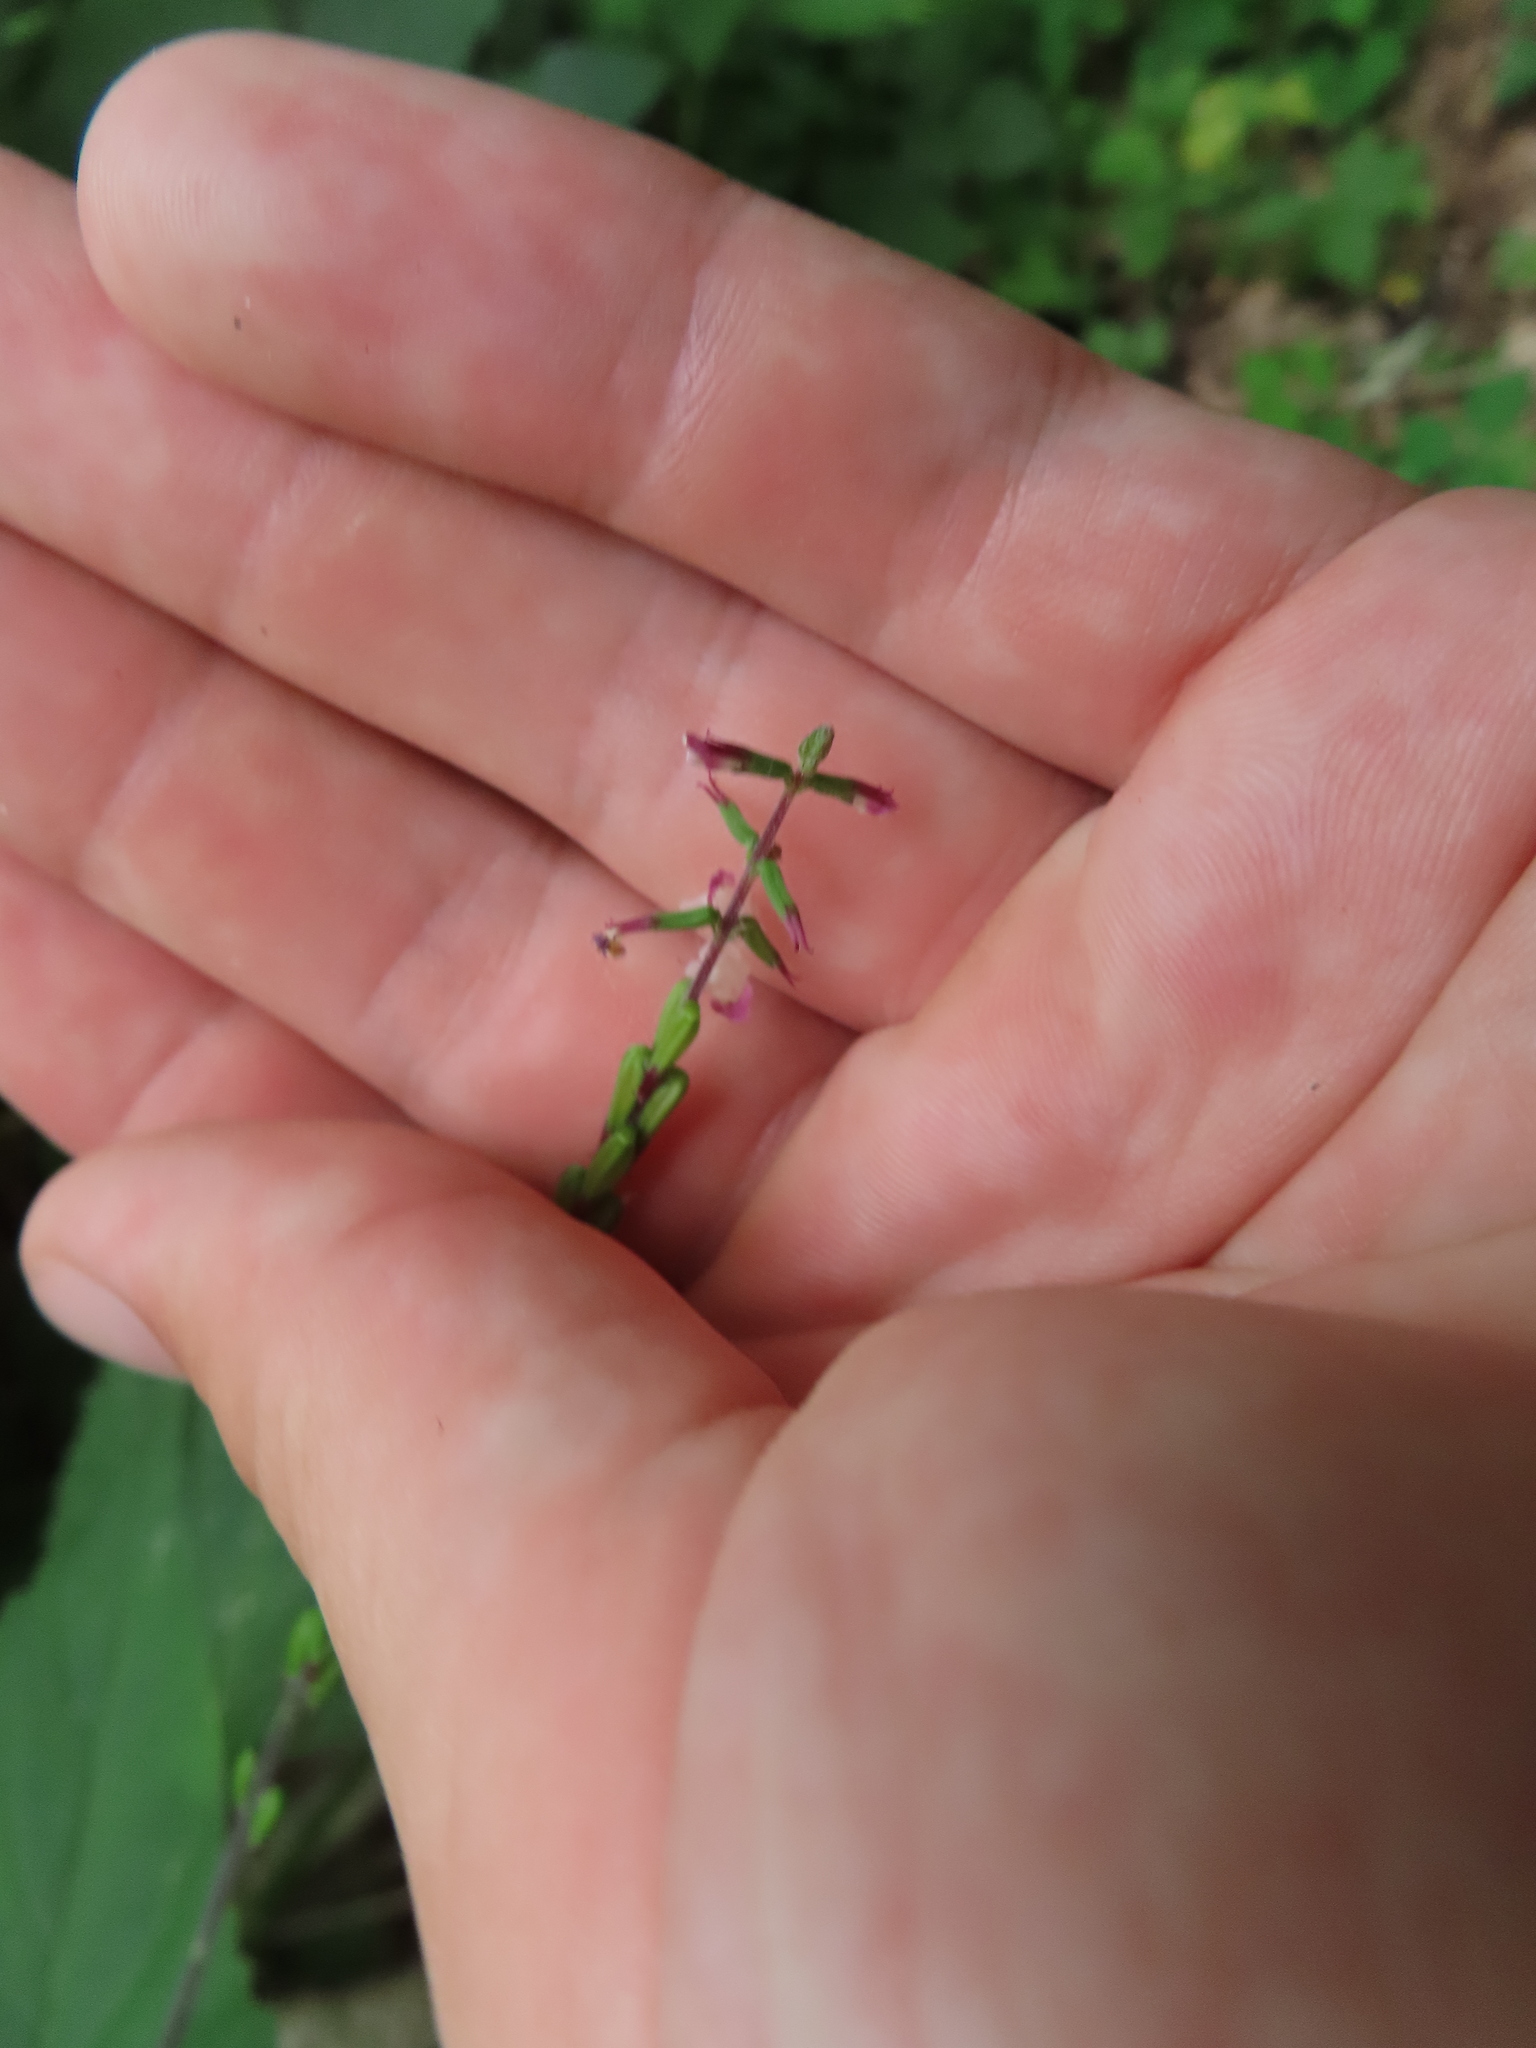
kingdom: Plantae
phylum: Tracheophyta
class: Magnoliopsida
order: Lamiales
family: Phrymaceae
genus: Phryma
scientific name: Phryma leptostachya
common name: American lopseed
